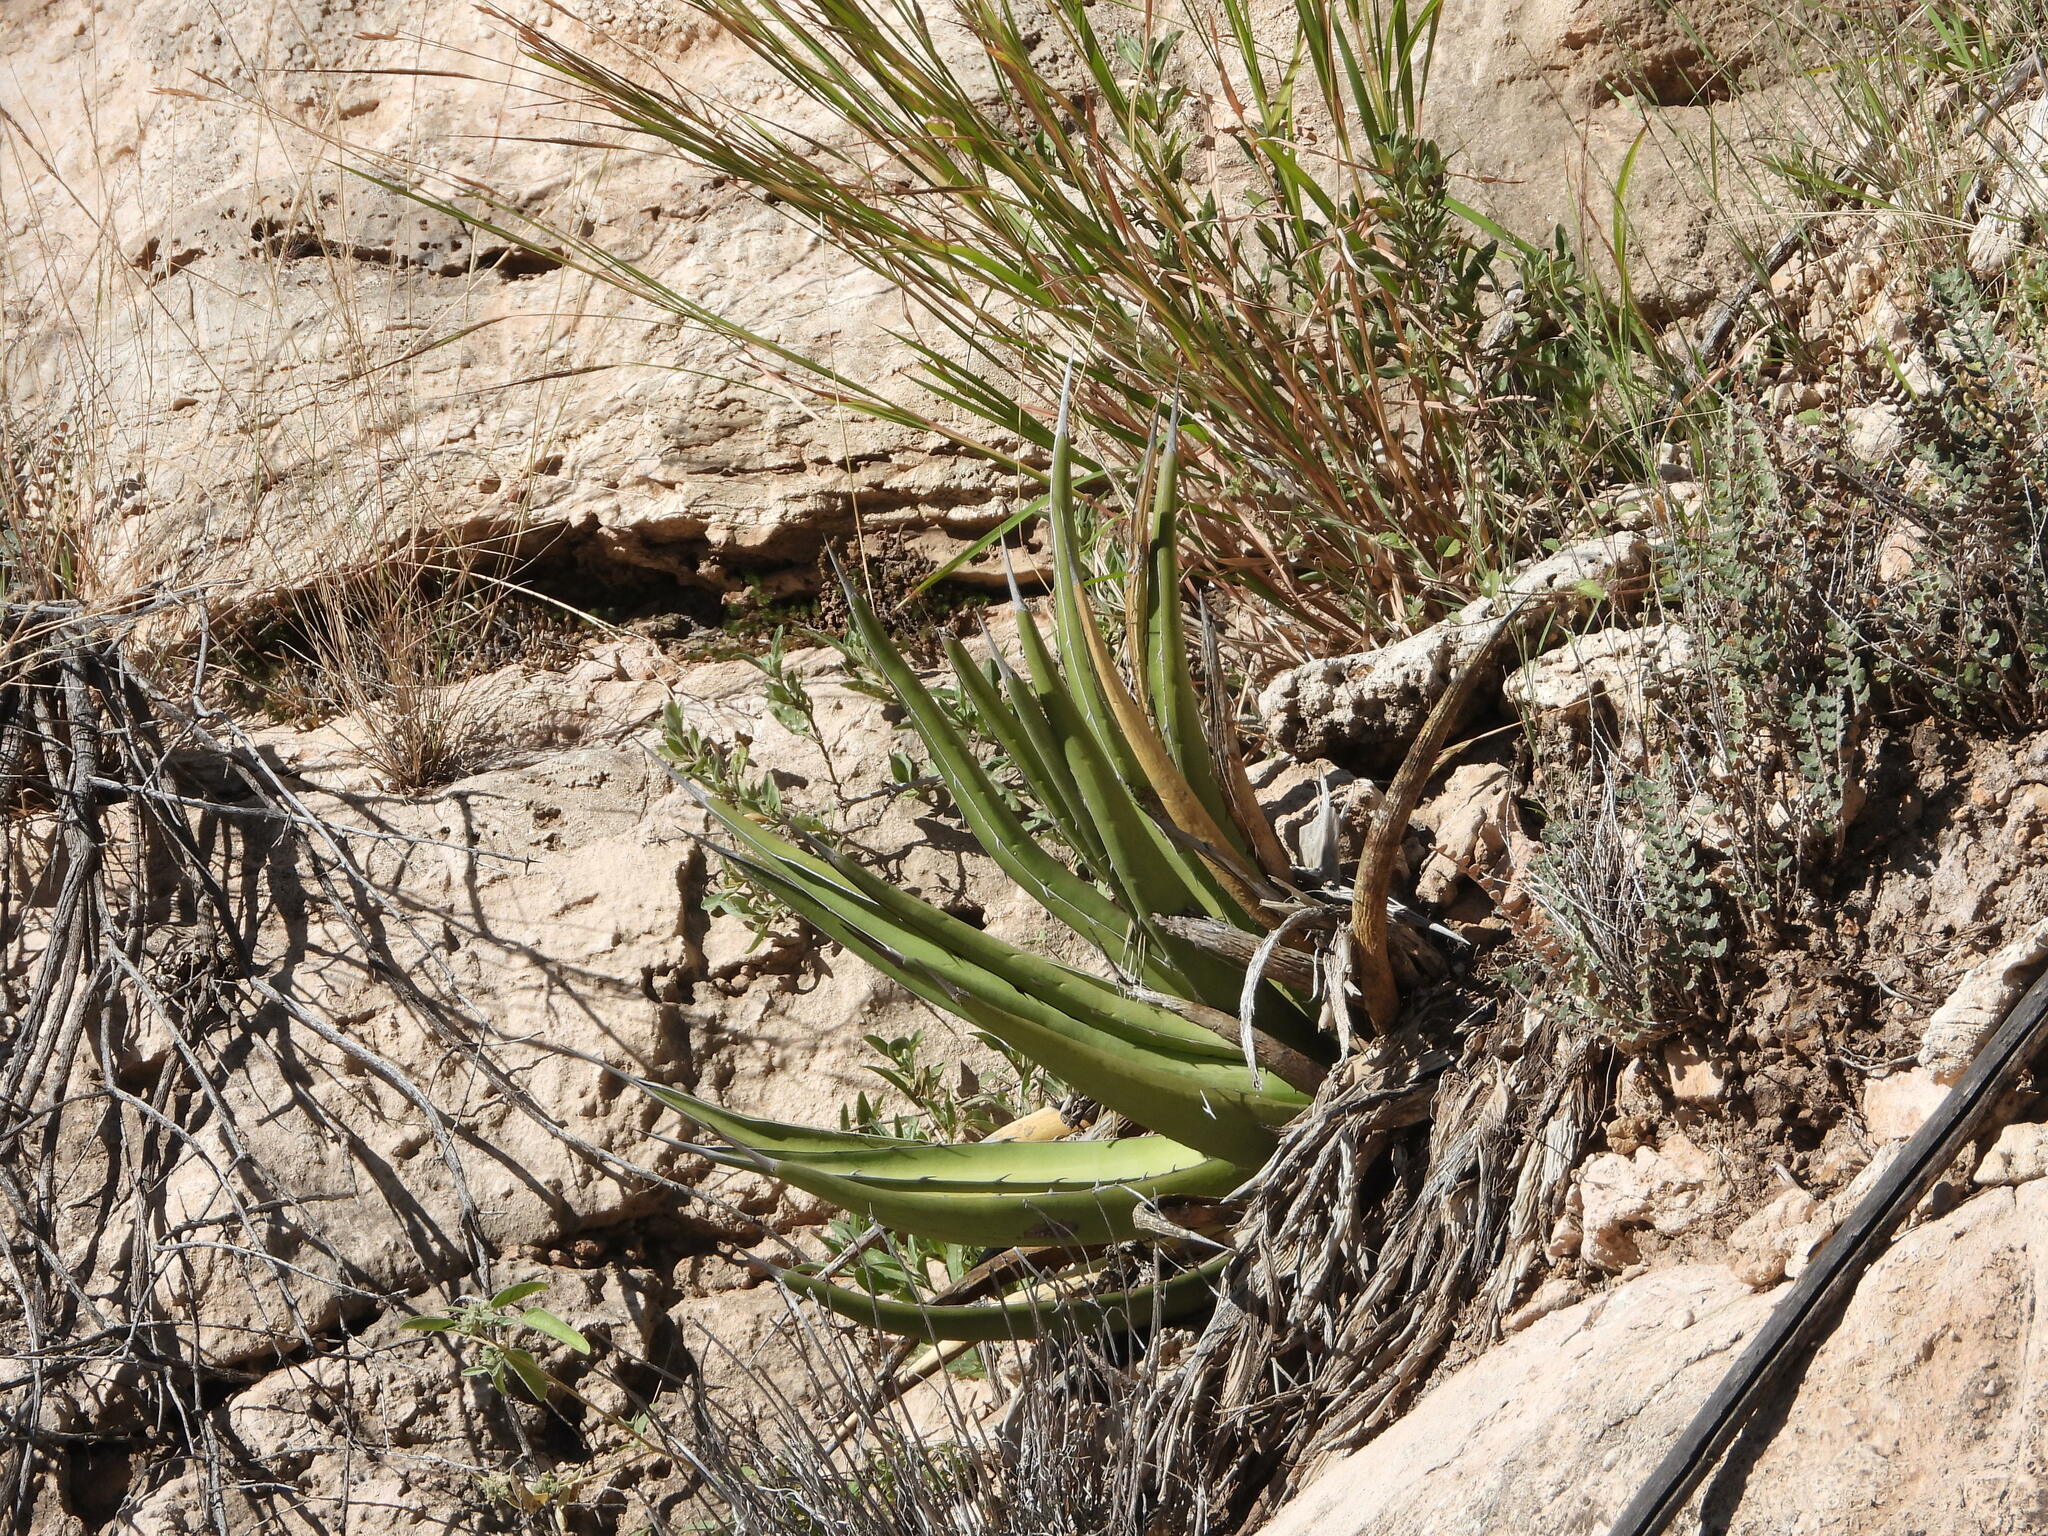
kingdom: Plantae
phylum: Tracheophyta
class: Liliopsida
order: Asparagales
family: Asparagaceae
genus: Agave
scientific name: Agave lechuguilla
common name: Lecheguilla agave
